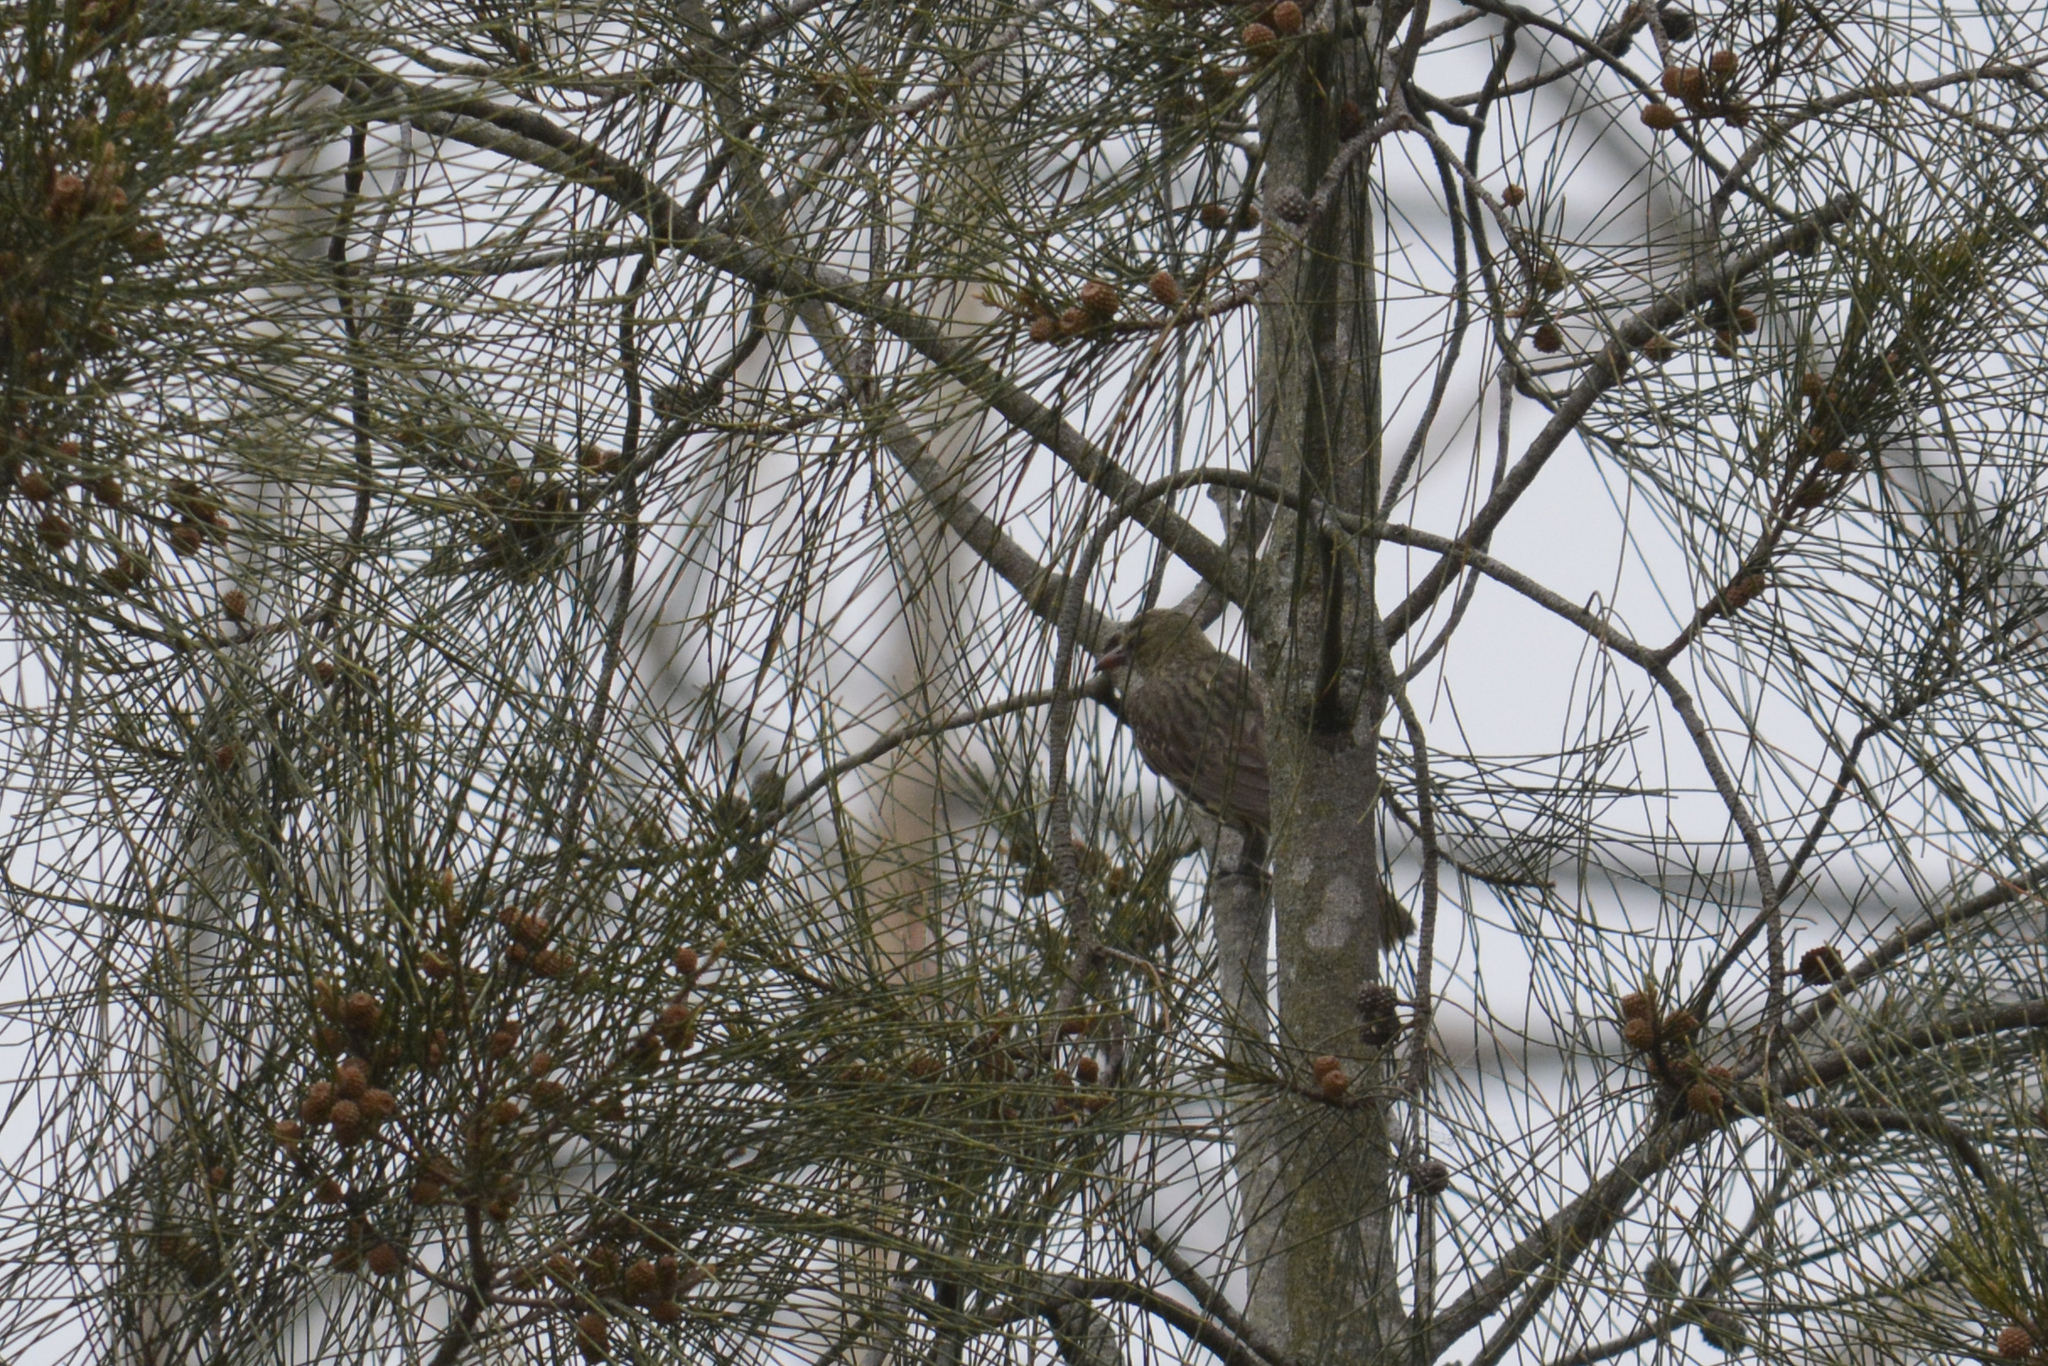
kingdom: Animalia
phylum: Chordata
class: Aves
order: Passeriformes
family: Oriolidae
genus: Oriolus
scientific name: Oriolus sagittatus
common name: Olive-backed oriole
